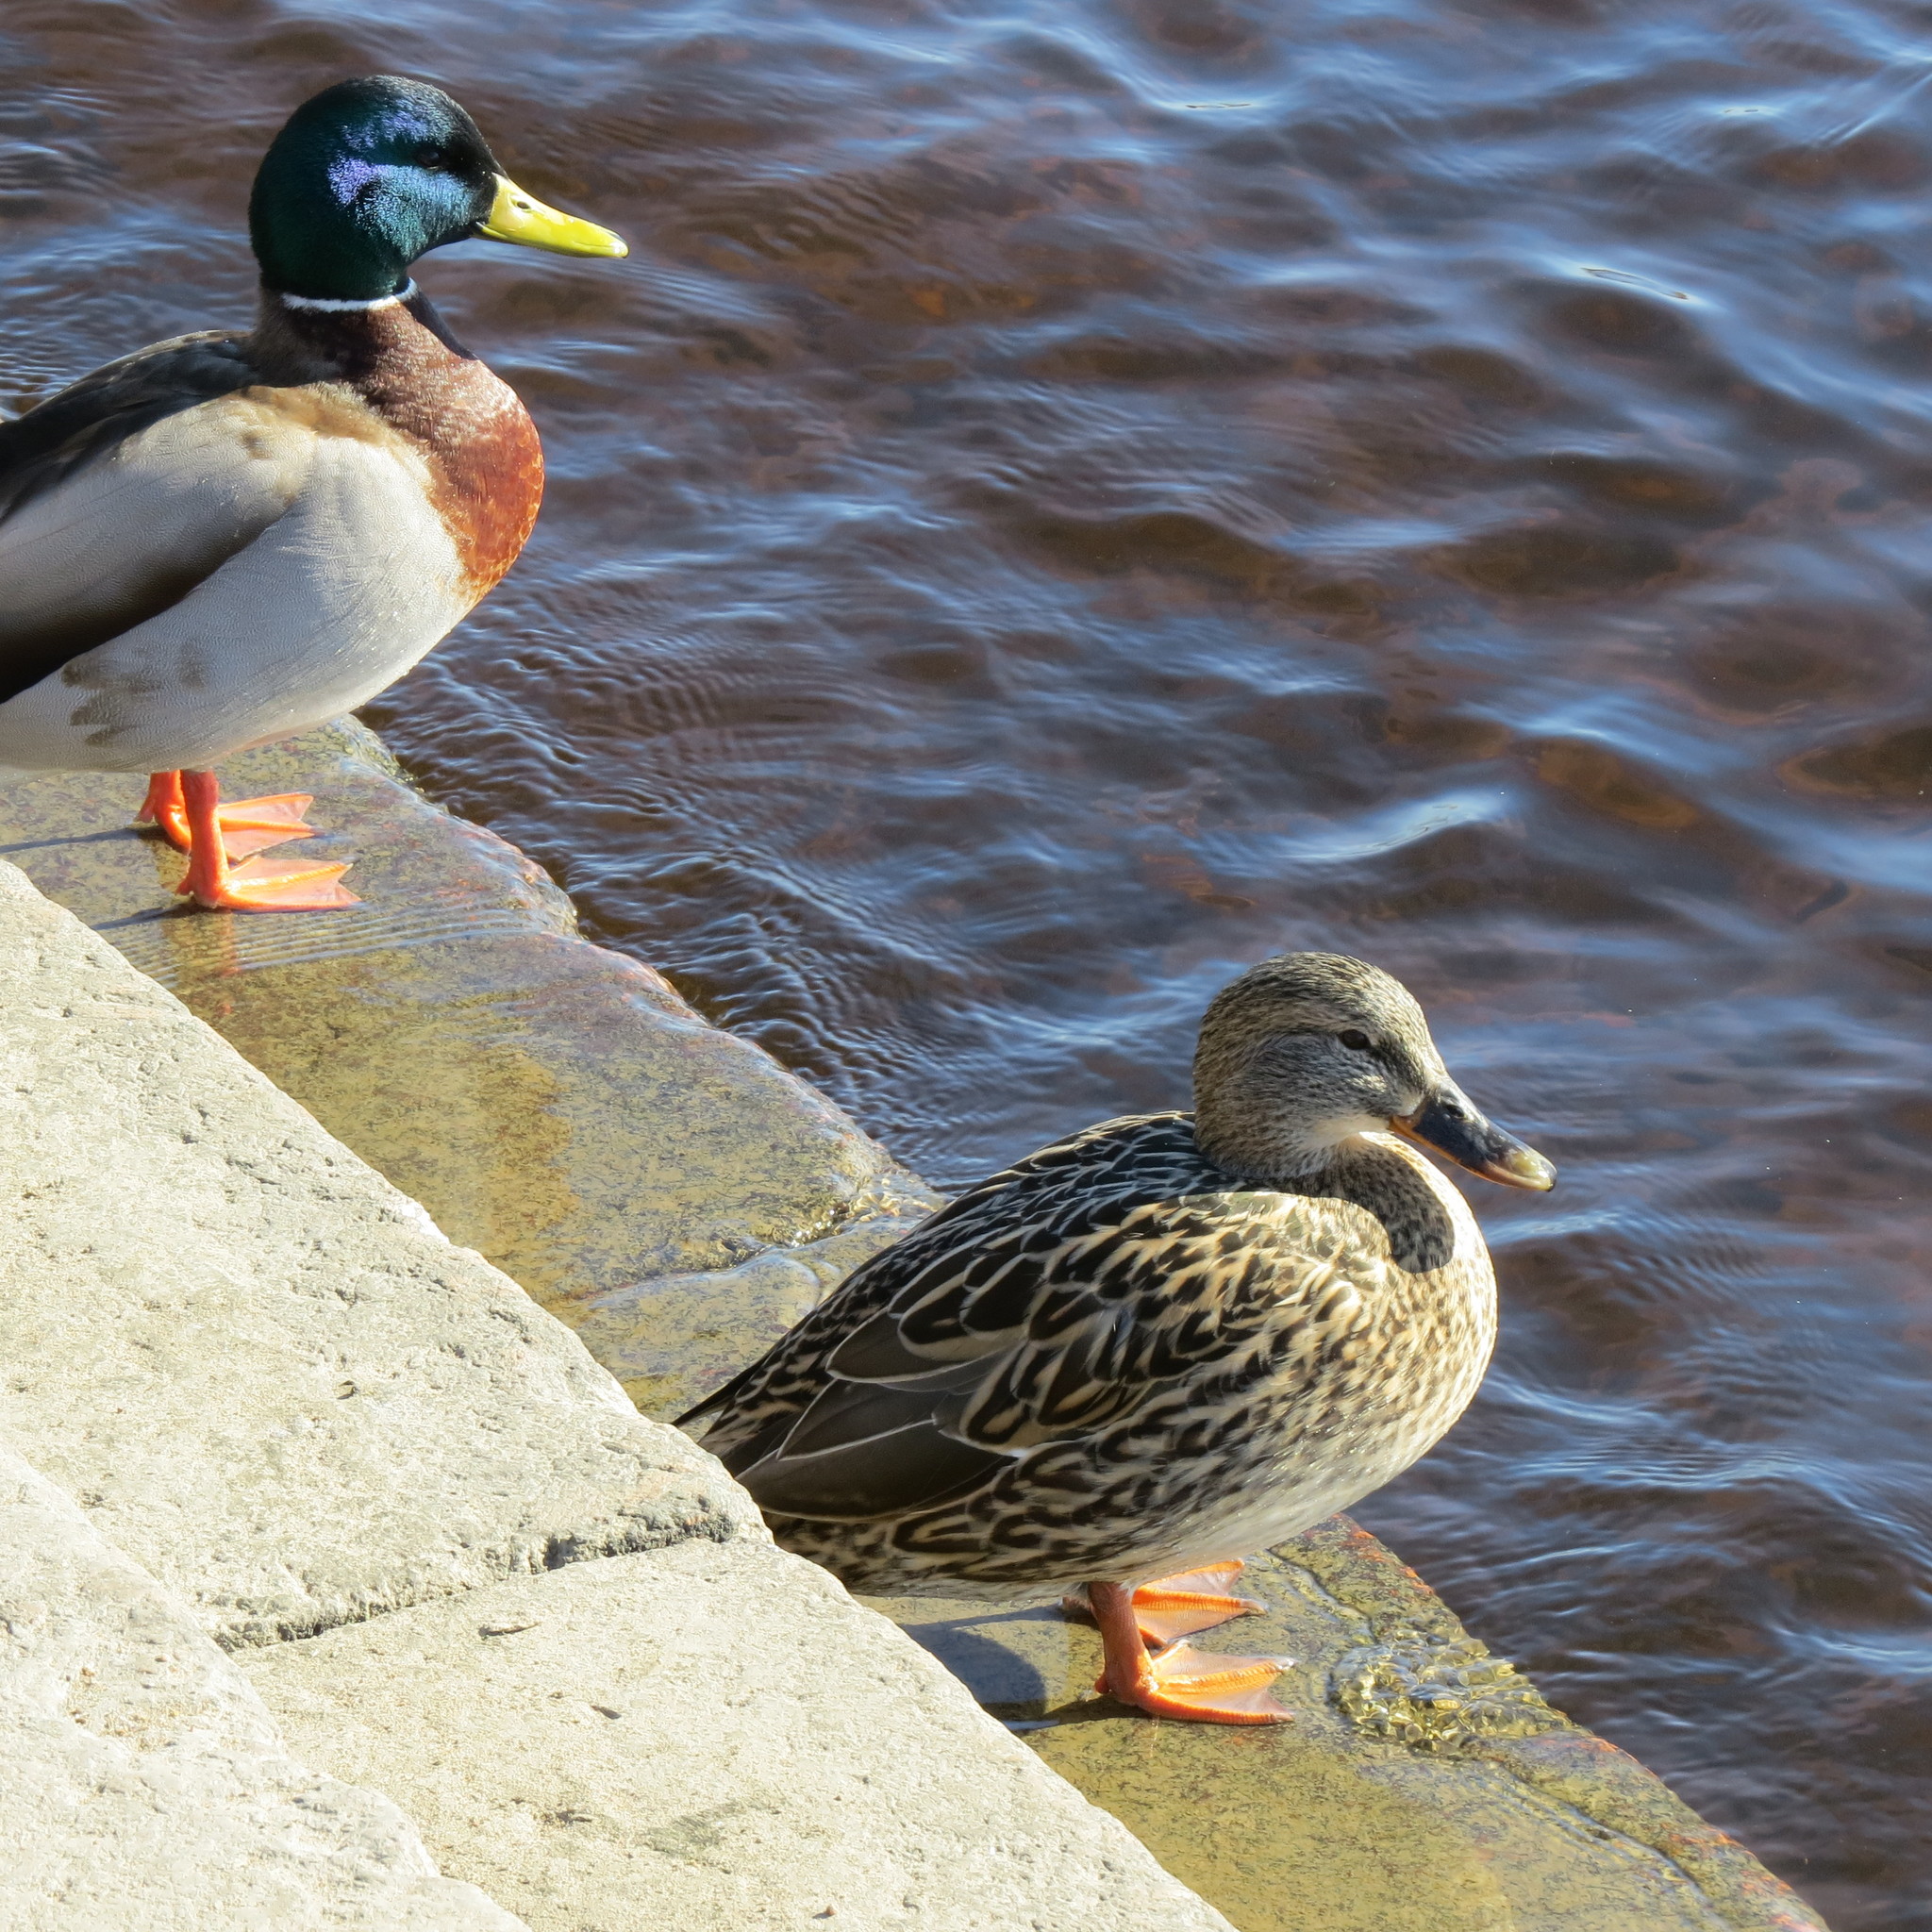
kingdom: Animalia
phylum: Chordata
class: Aves
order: Anseriformes
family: Anatidae
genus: Anas
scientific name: Anas platyrhynchos
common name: Mallard
